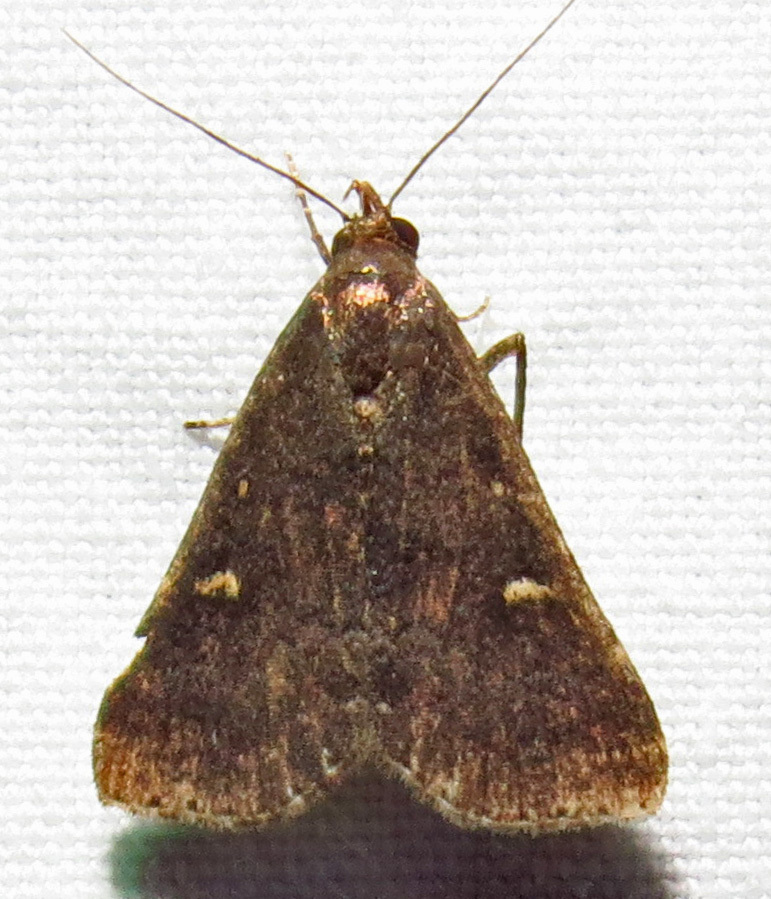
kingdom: Animalia
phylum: Arthropoda
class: Insecta
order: Lepidoptera
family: Erebidae
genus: Tetanolita
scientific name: Tetanolita mynesalis
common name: Smoky tetanolita moth
